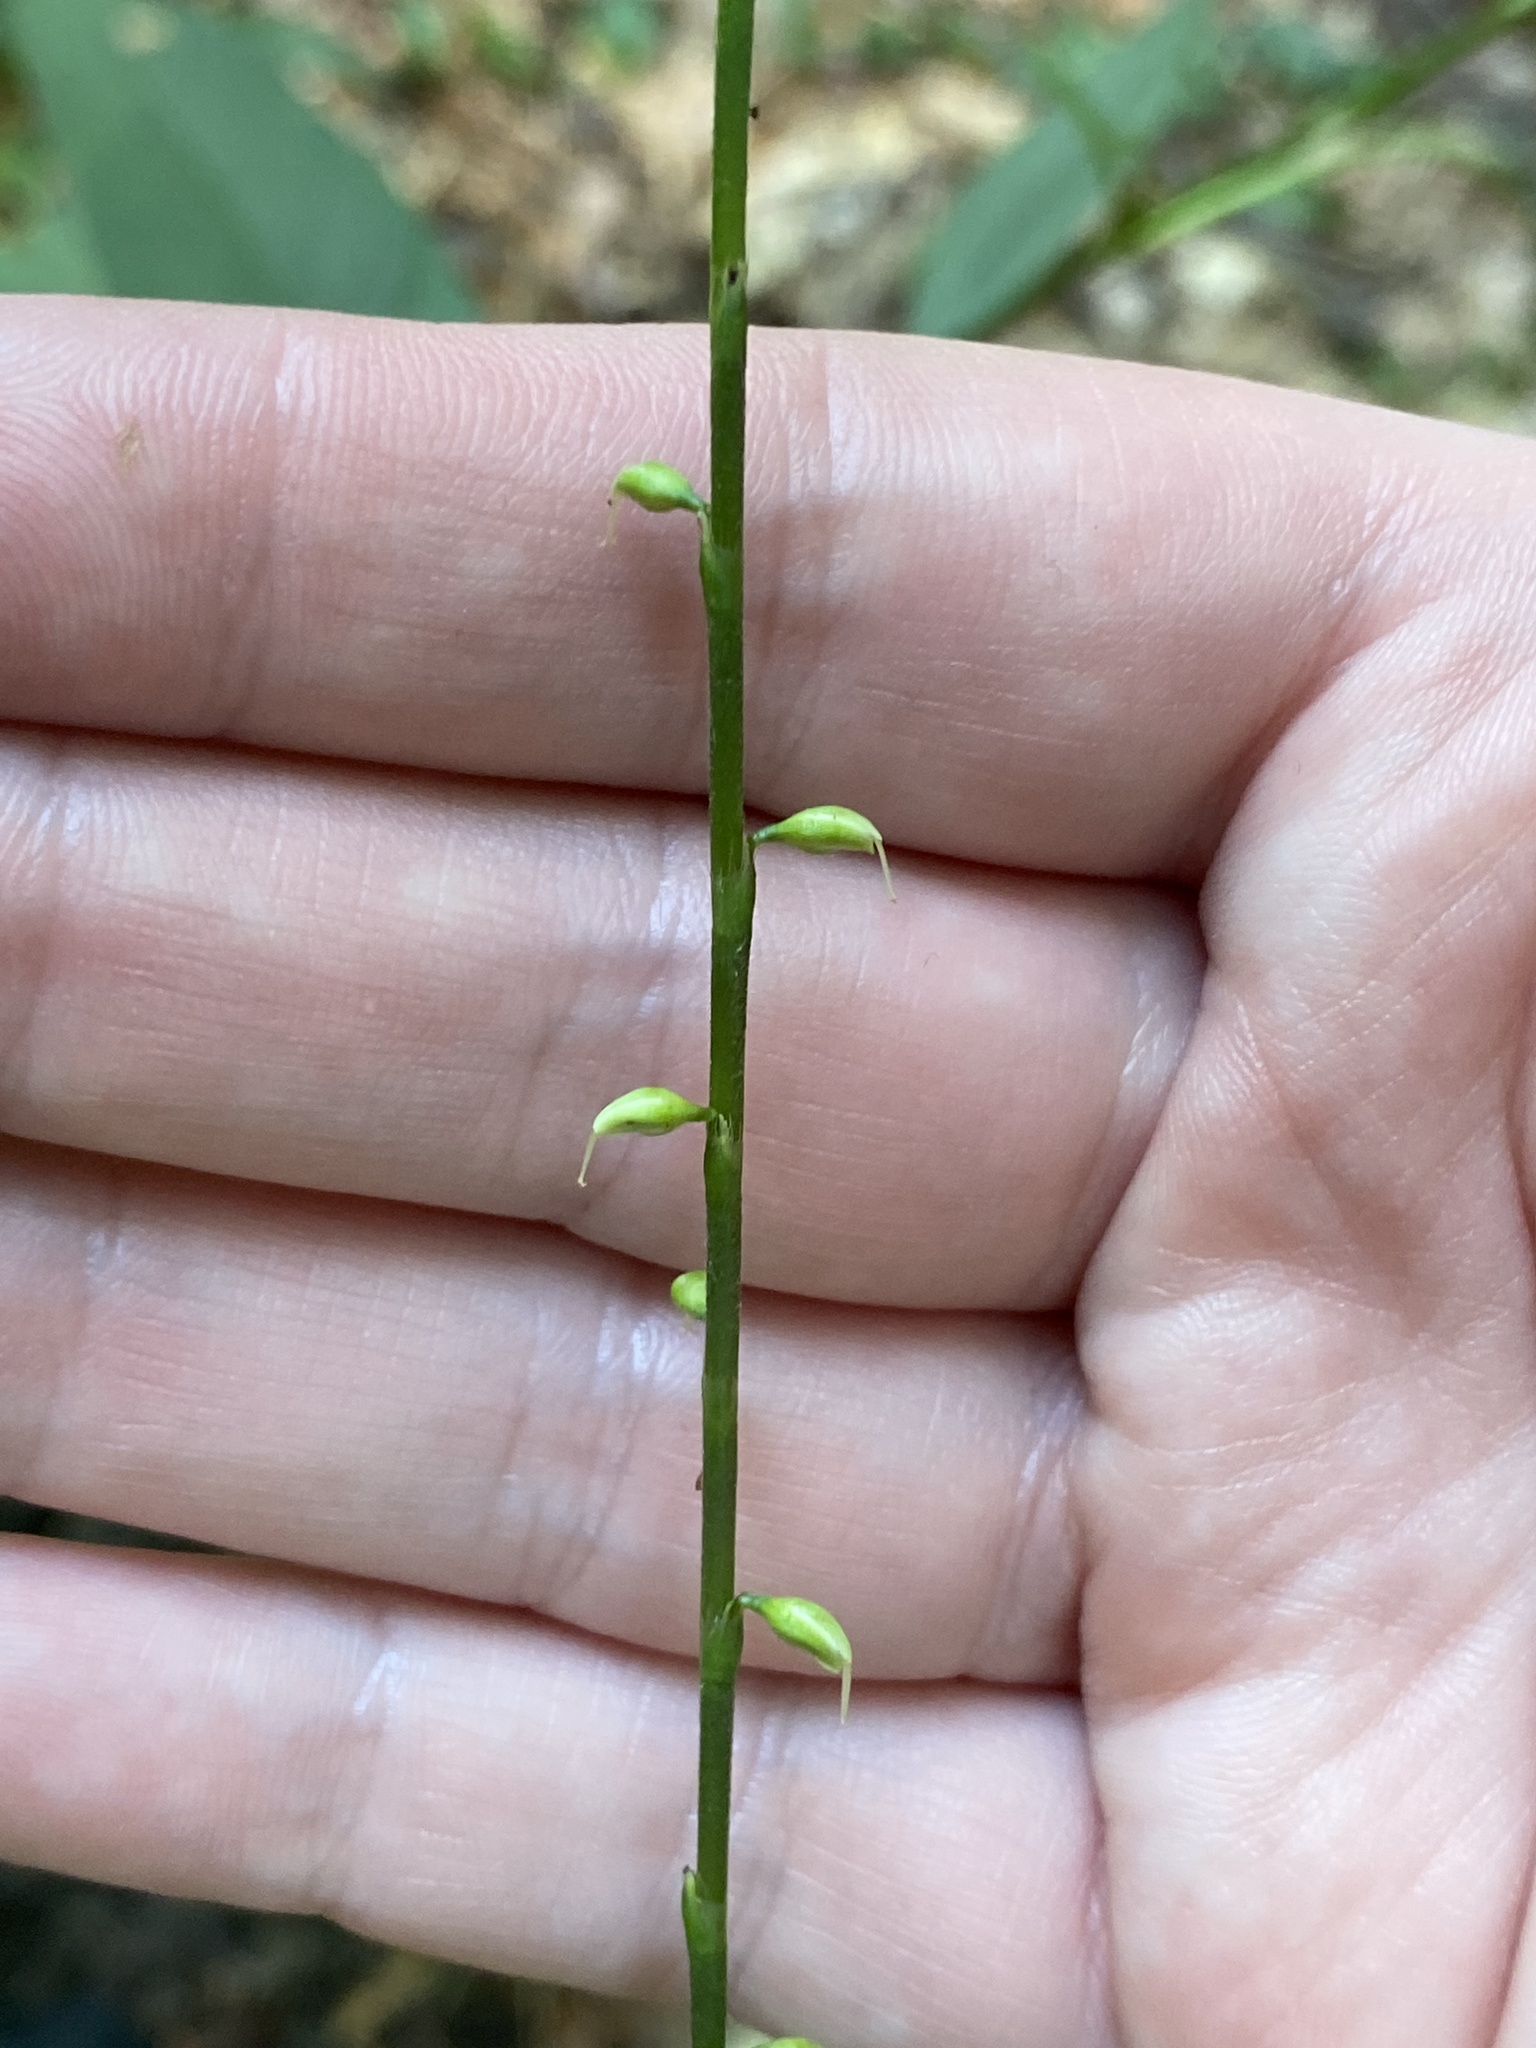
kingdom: Plantae
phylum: Tracheophyta
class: Magnoliopsida
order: Caryophyllales
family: Polygonaceae
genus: Persicaria
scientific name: Persicaria virginiana
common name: Jumpseed
